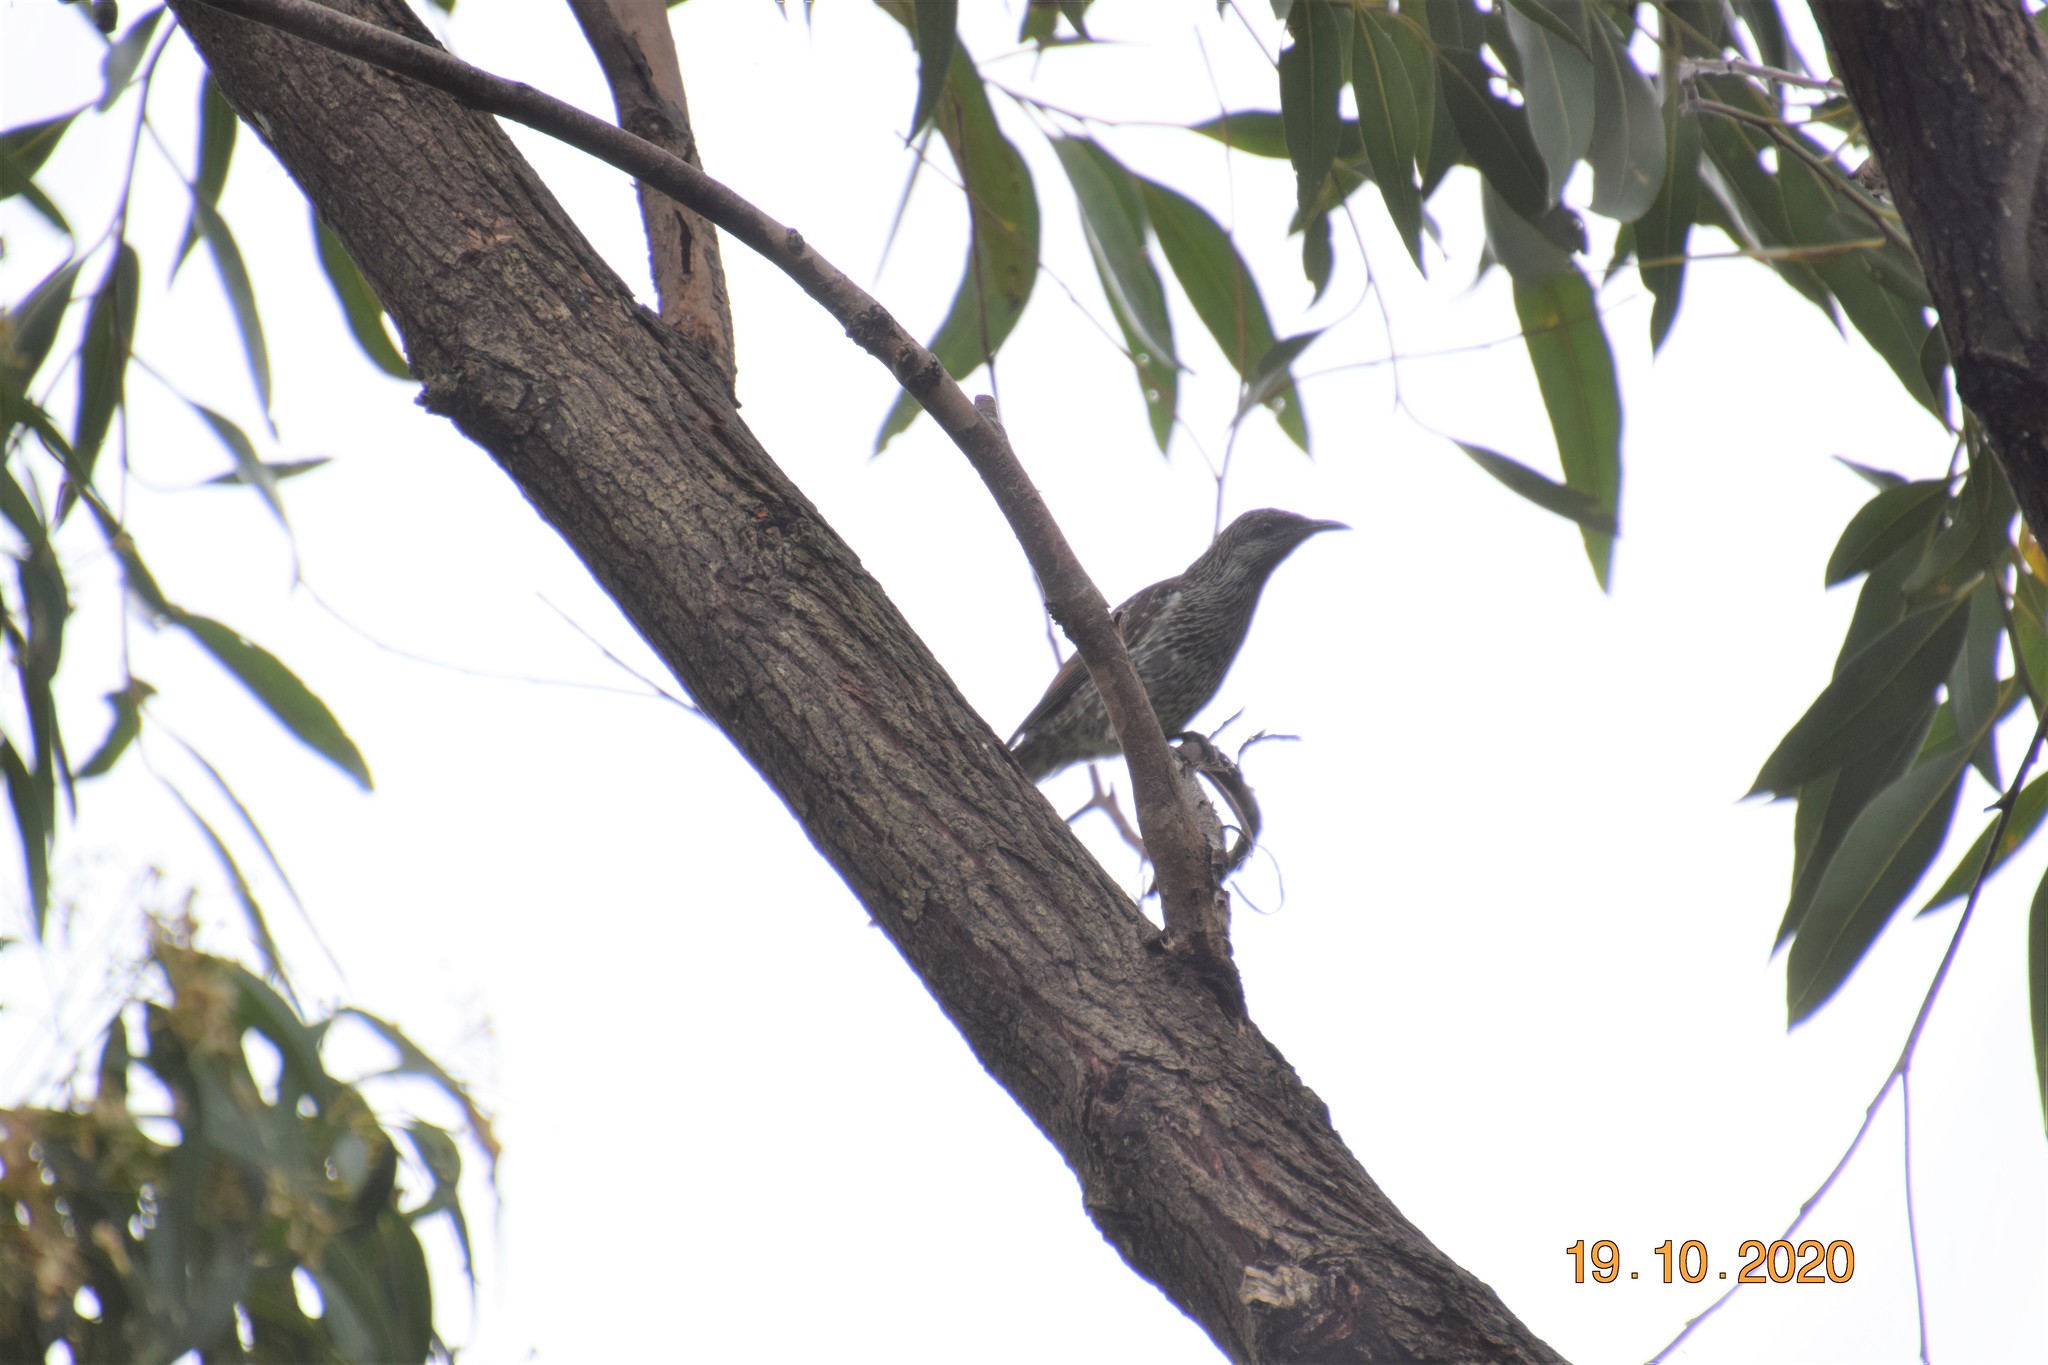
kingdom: Animalia
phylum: Chordata
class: Aves
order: Passeriformes
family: Meliphagidae
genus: Anthochaera
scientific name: Anthochaera chrysoptera
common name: Little wattlebird
